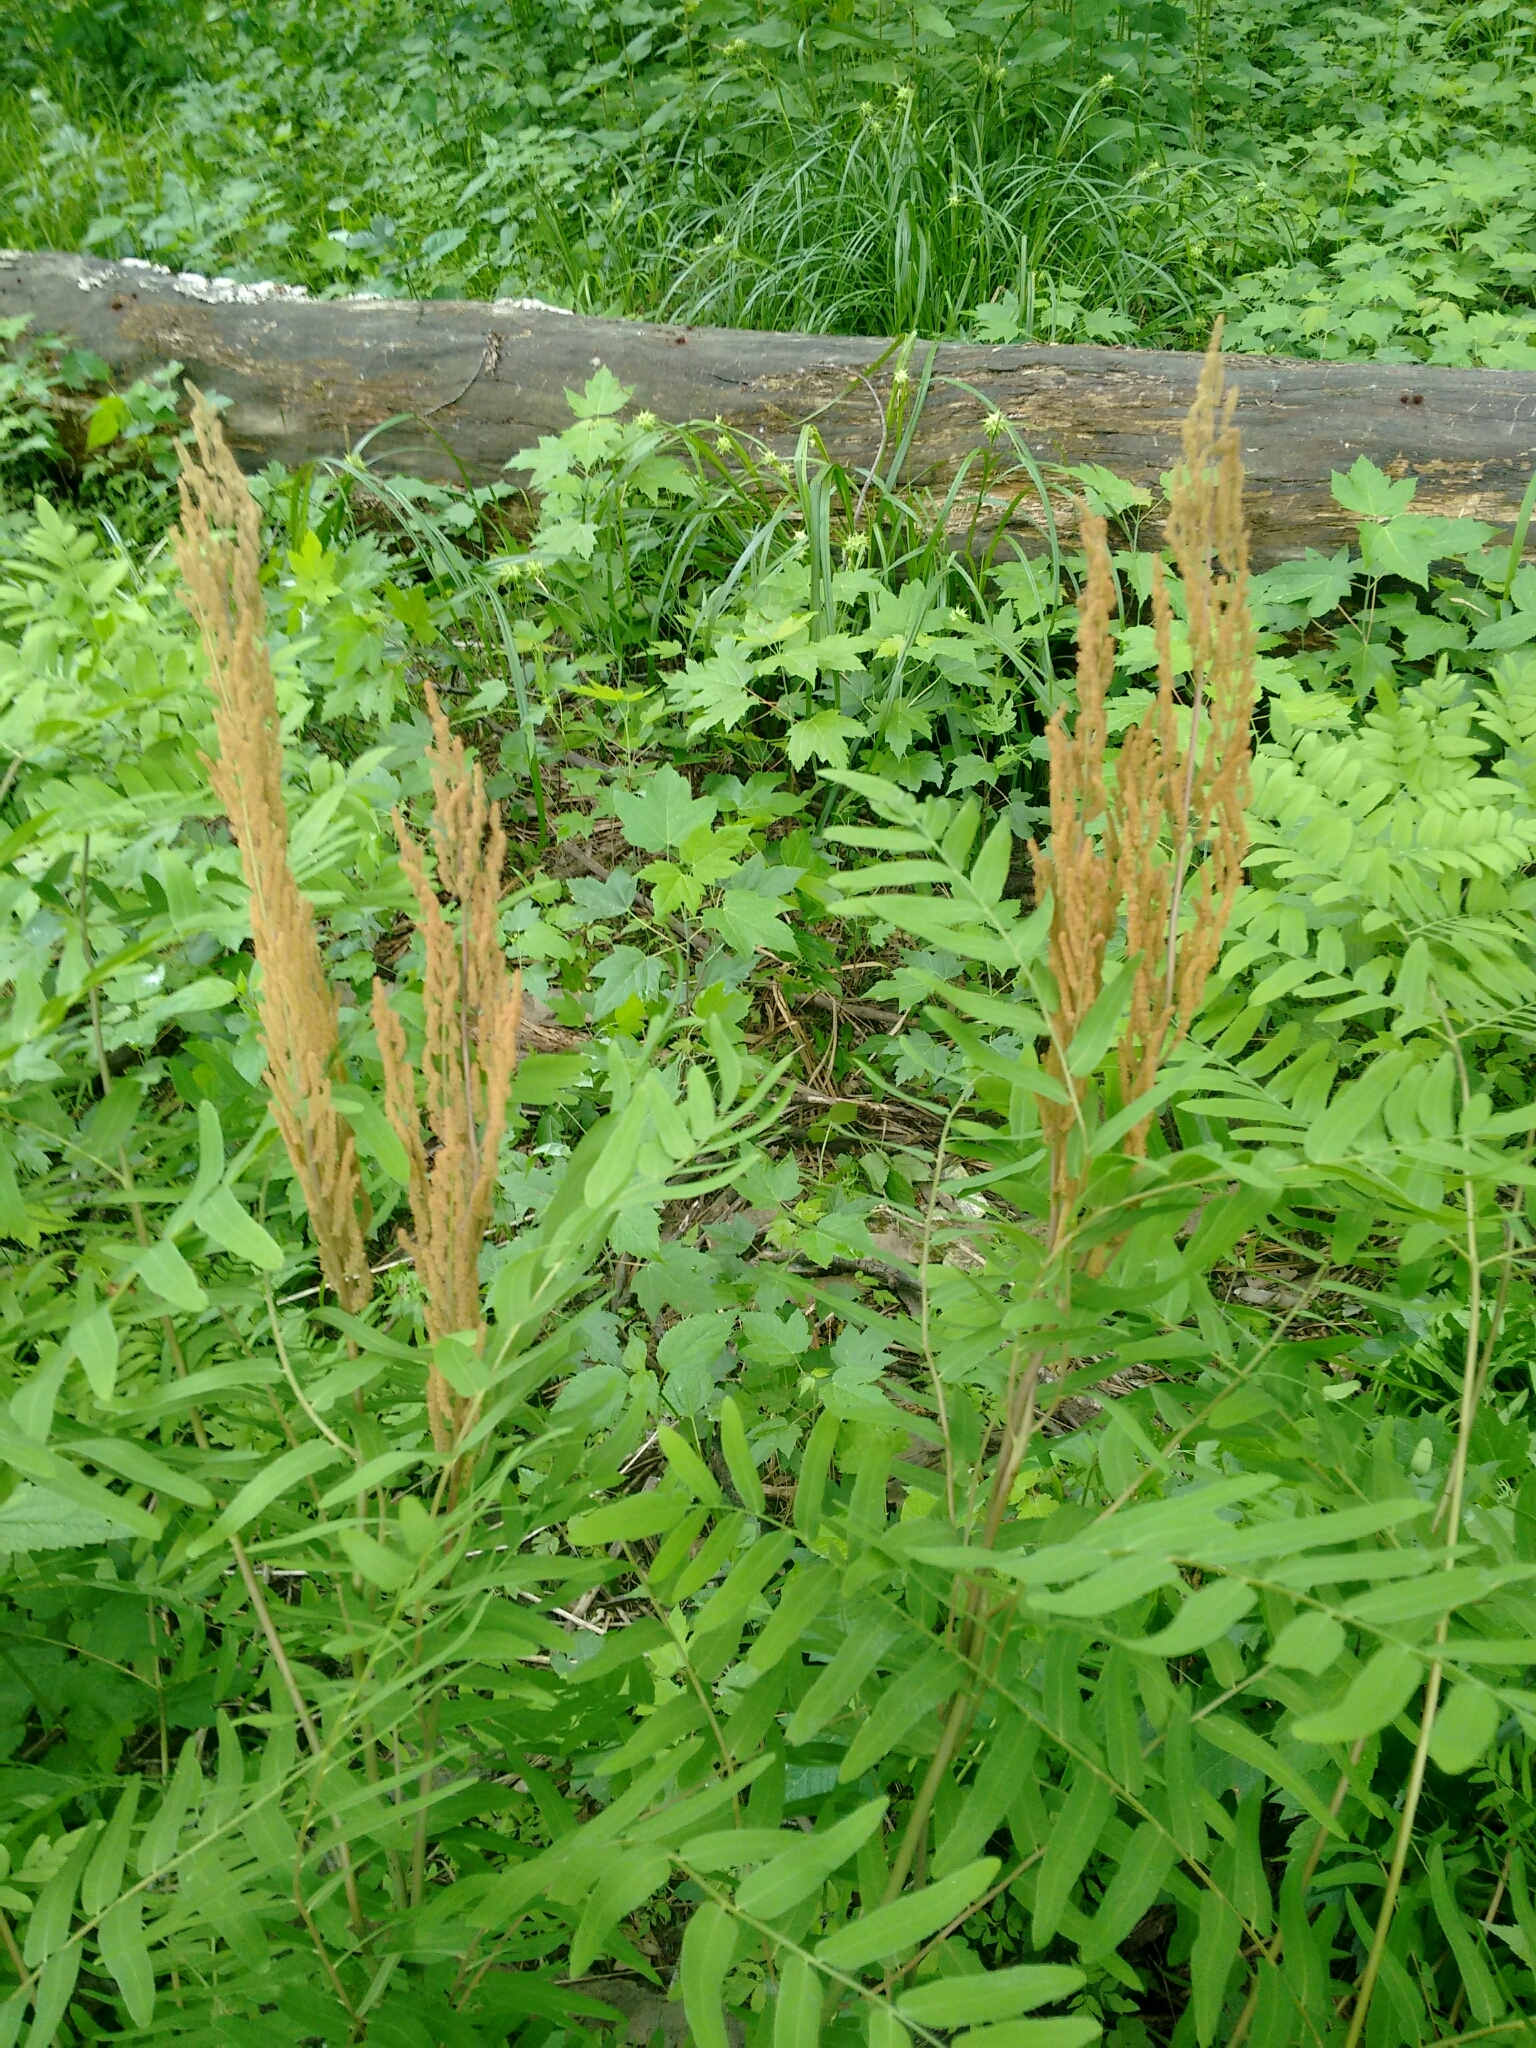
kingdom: Plantae
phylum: Tracheophyta
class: Polypodiopsida
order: Osmundales
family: Osmundaceae
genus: Osmunda
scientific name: Osmunda spectabilis
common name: American royal fern
